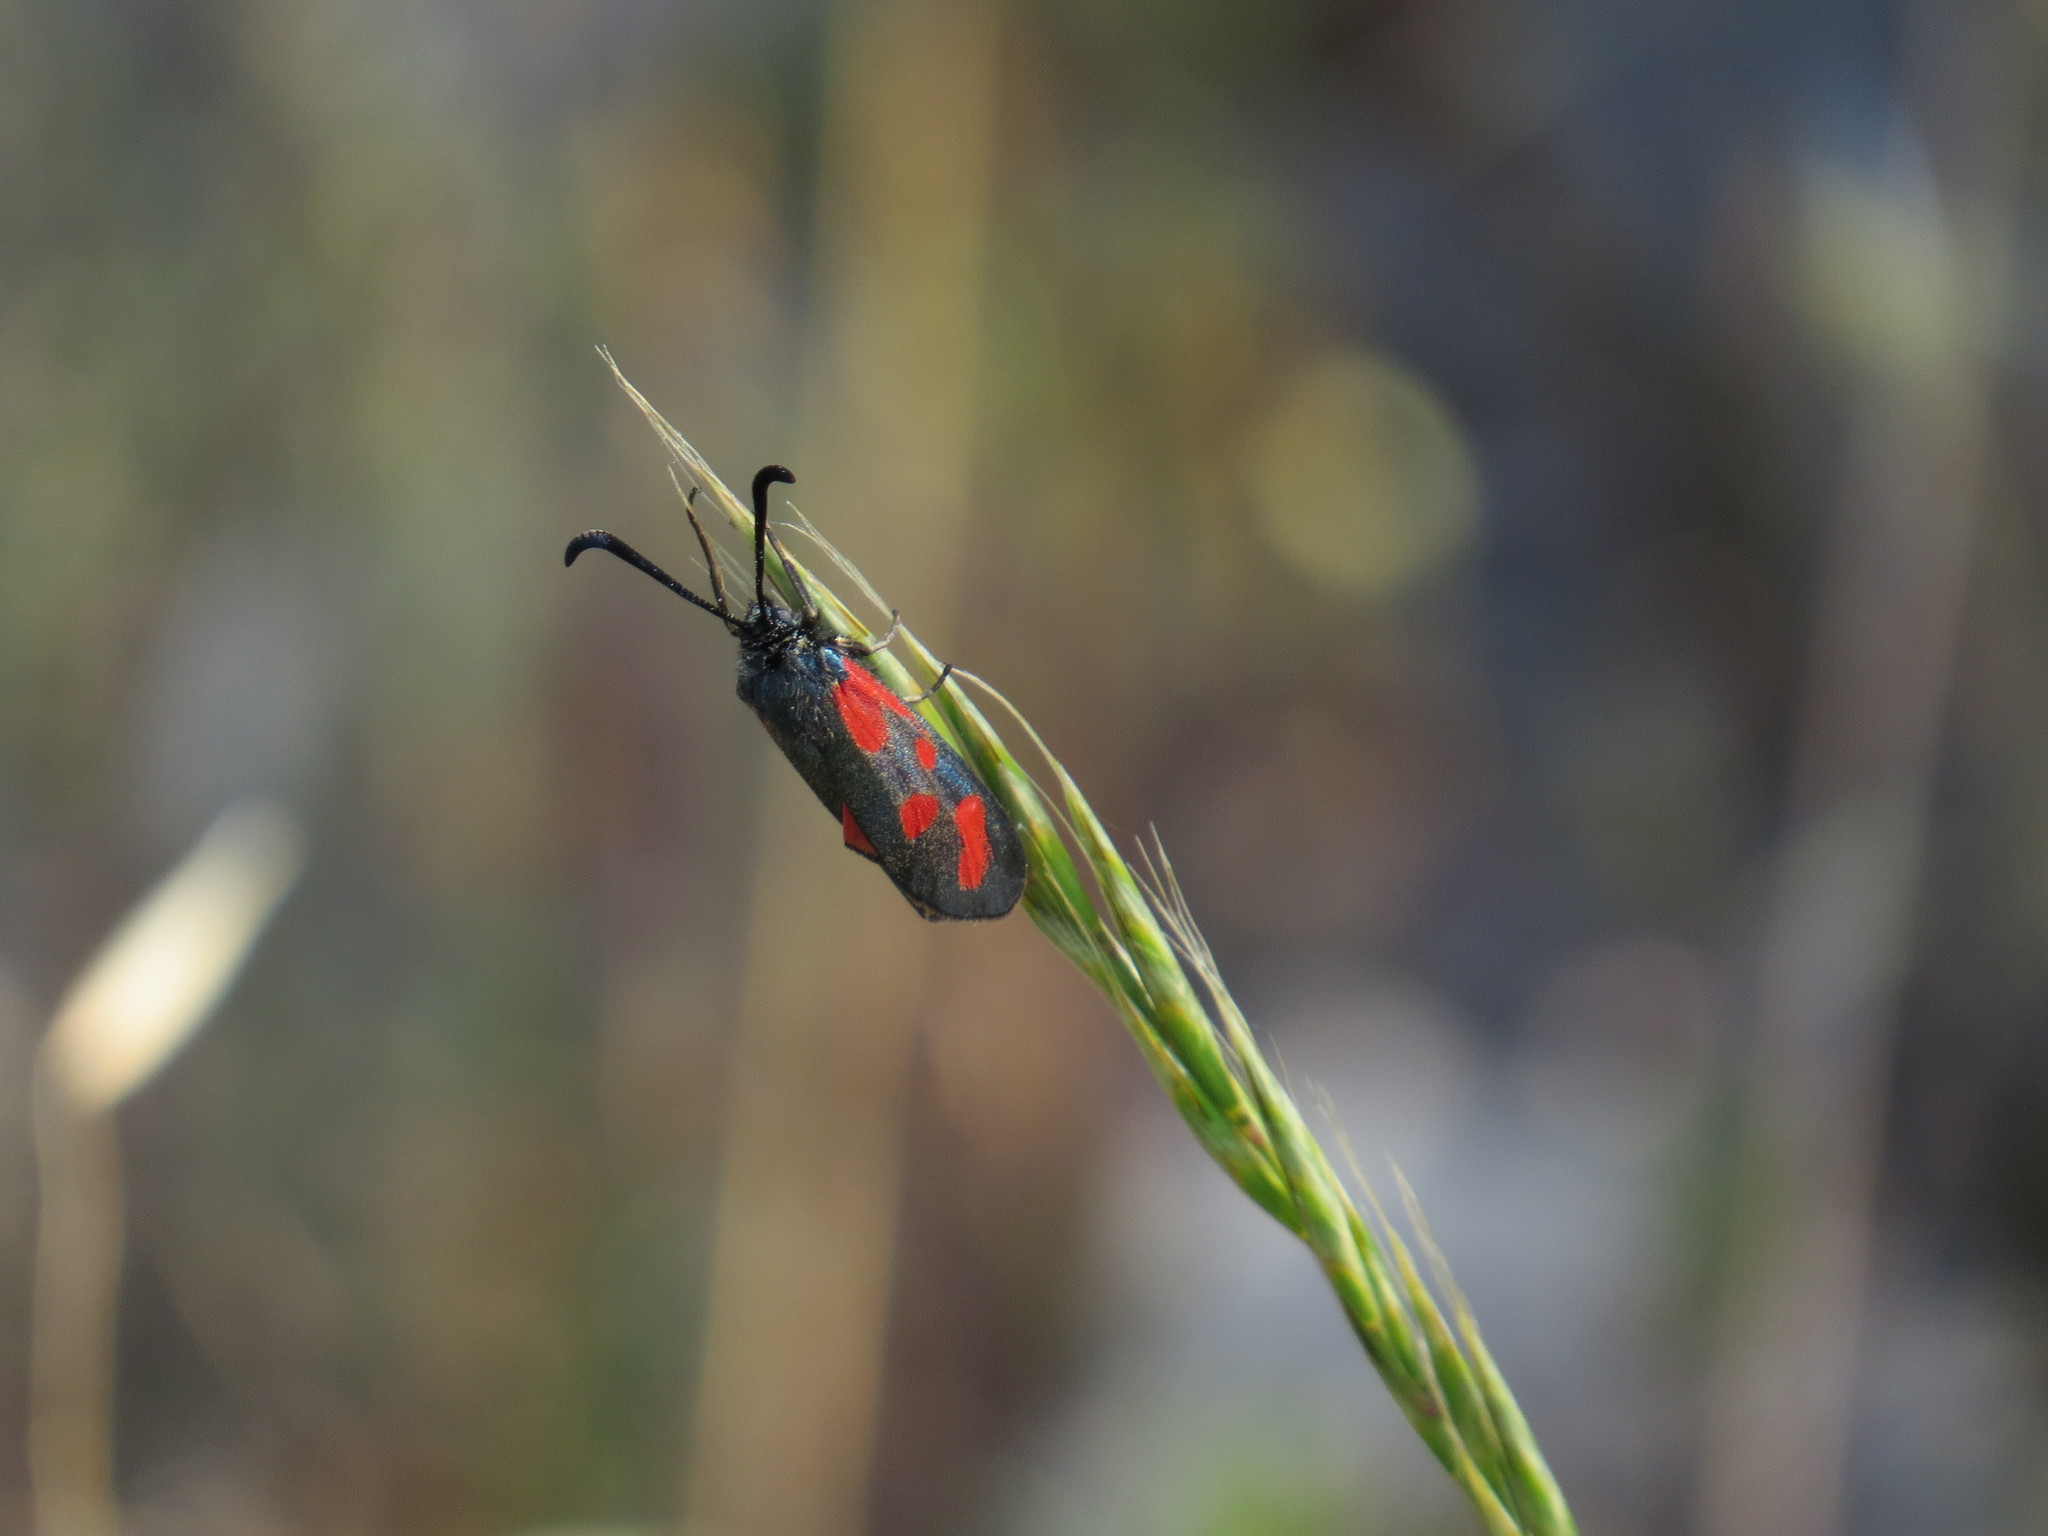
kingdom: Animalia
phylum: Arthropoda
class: Insecta
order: Lepidoptera
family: Zygaenidae
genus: Zygaena
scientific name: Zygaena loti
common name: Slender scotch burnet
